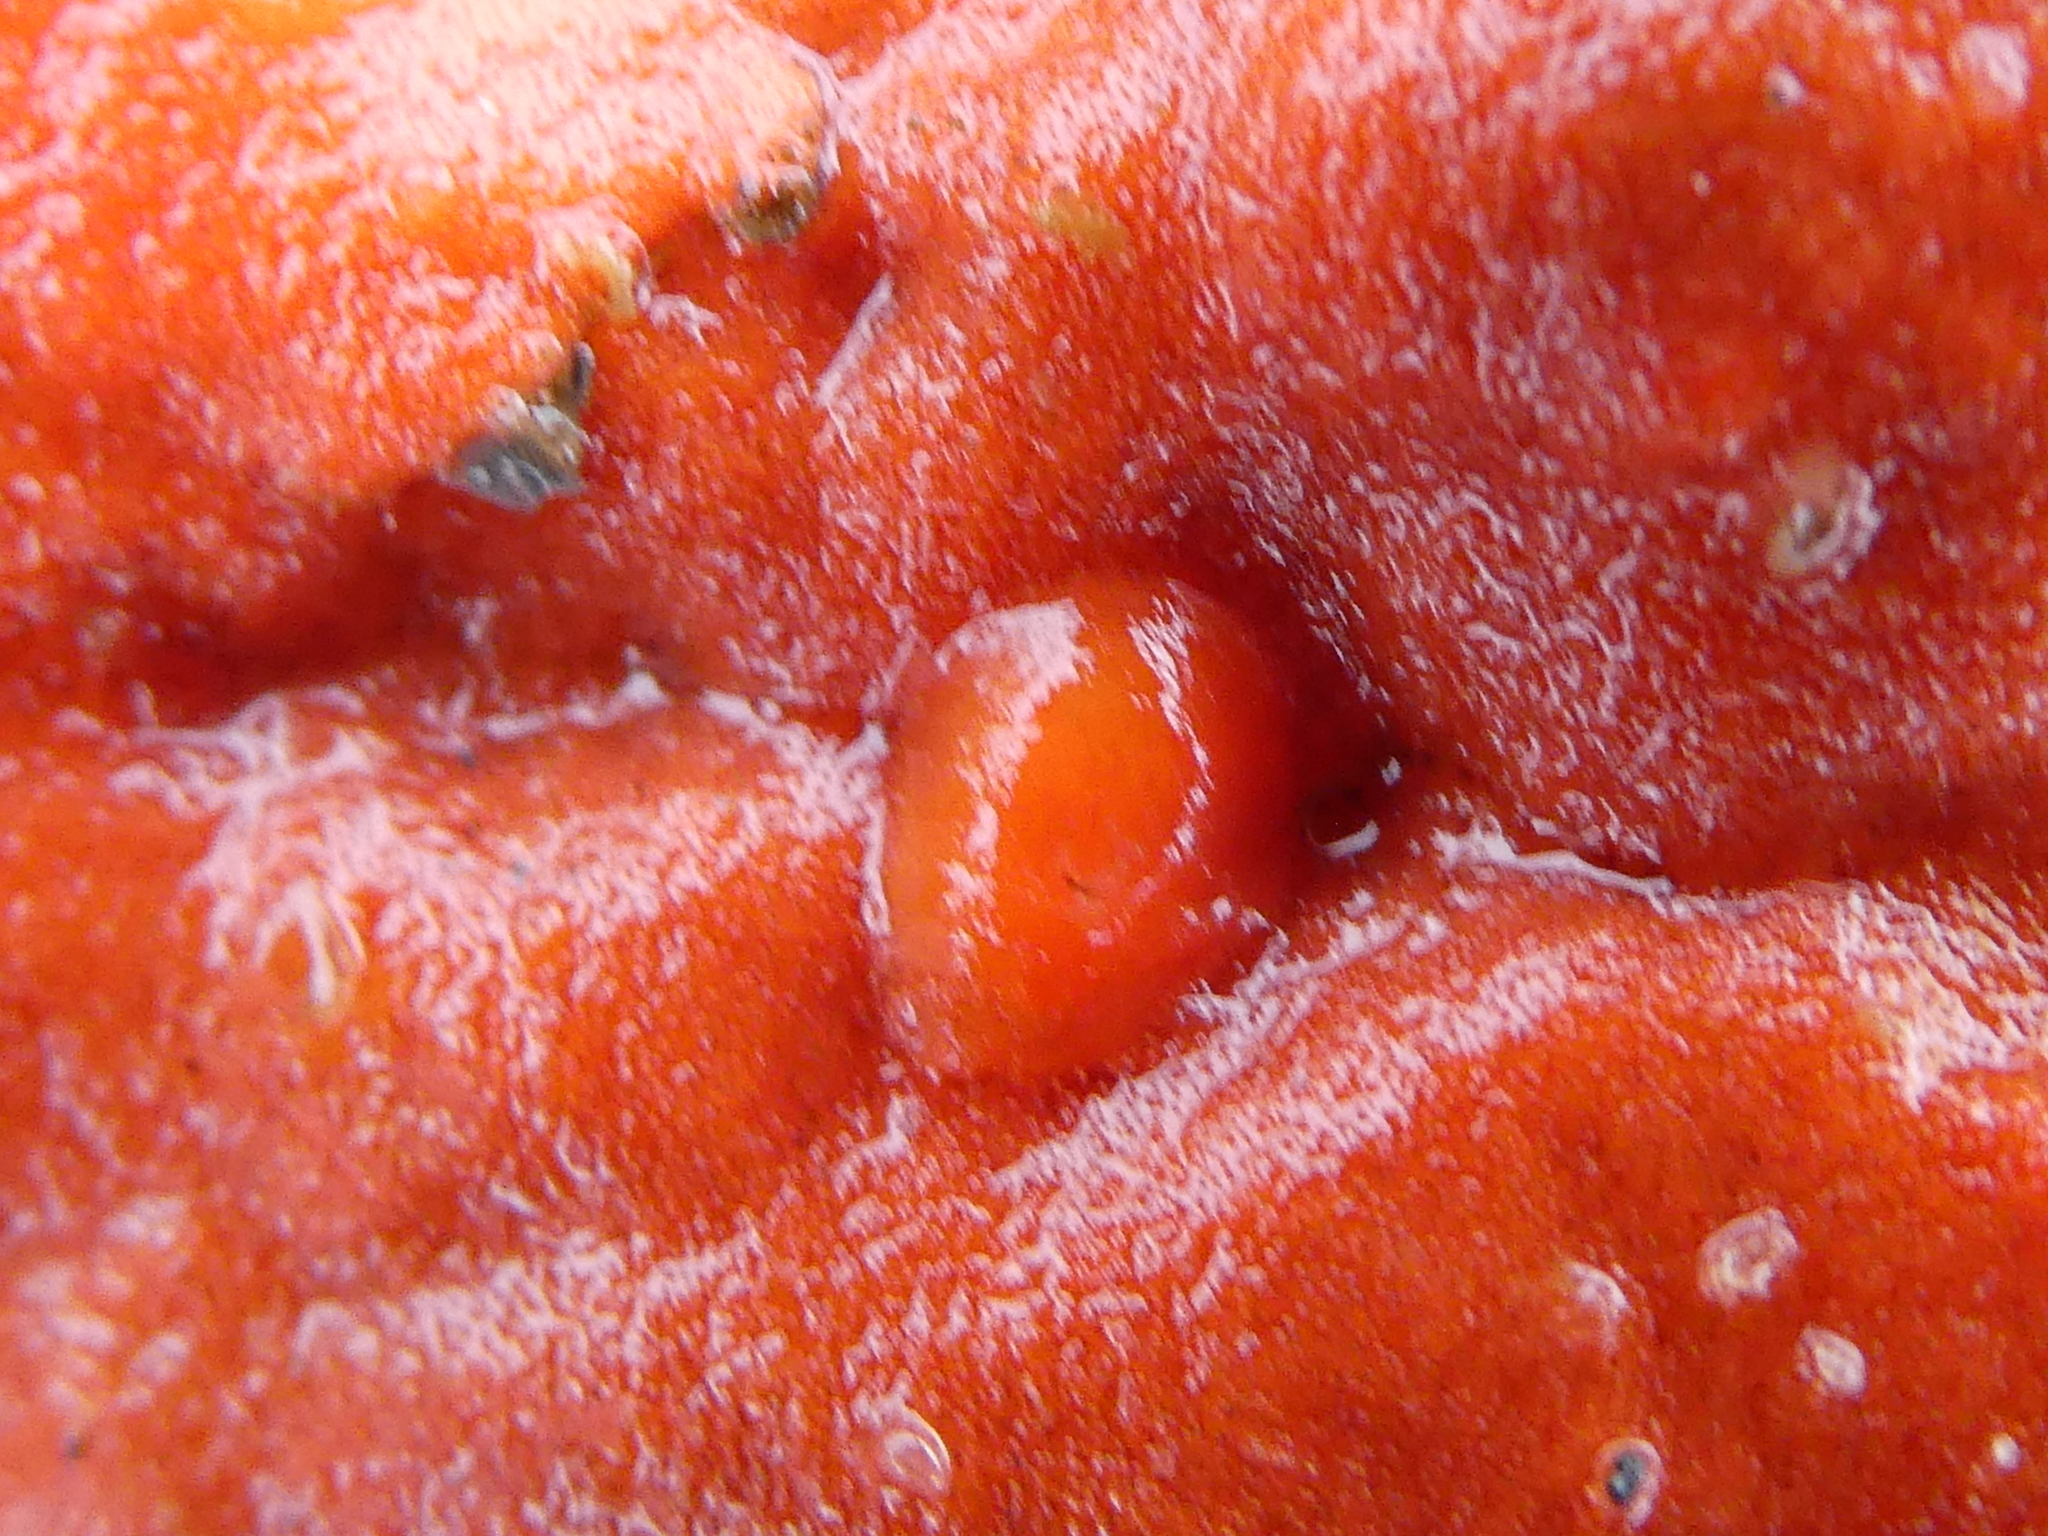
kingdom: Animalia
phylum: Mollusca
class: Gastropoda
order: Nudibranchia
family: Discodorididae
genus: Rostanga
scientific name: Rostanga pulchra
